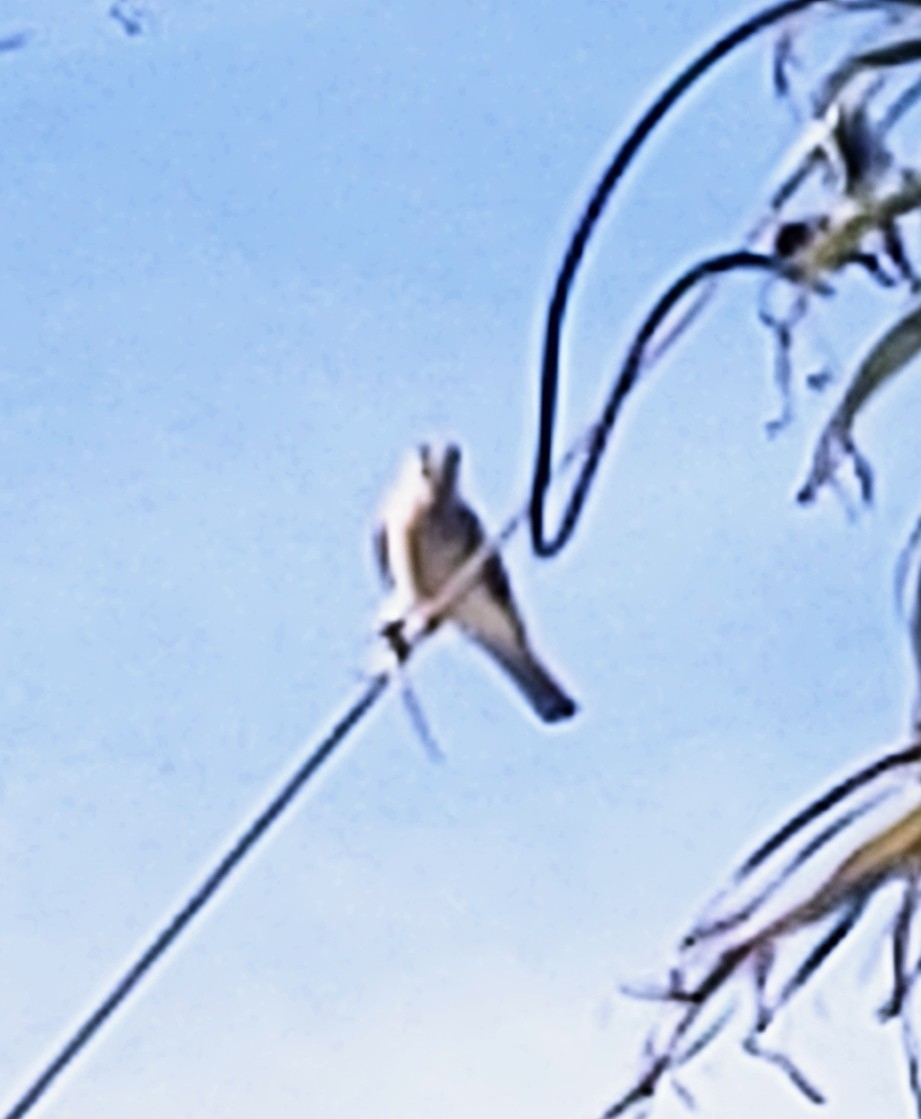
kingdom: Animalia
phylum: Chordata
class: Aves
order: Falconiformes
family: Falconidae
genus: Falco
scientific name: Falco sparverius
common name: American kestrel
